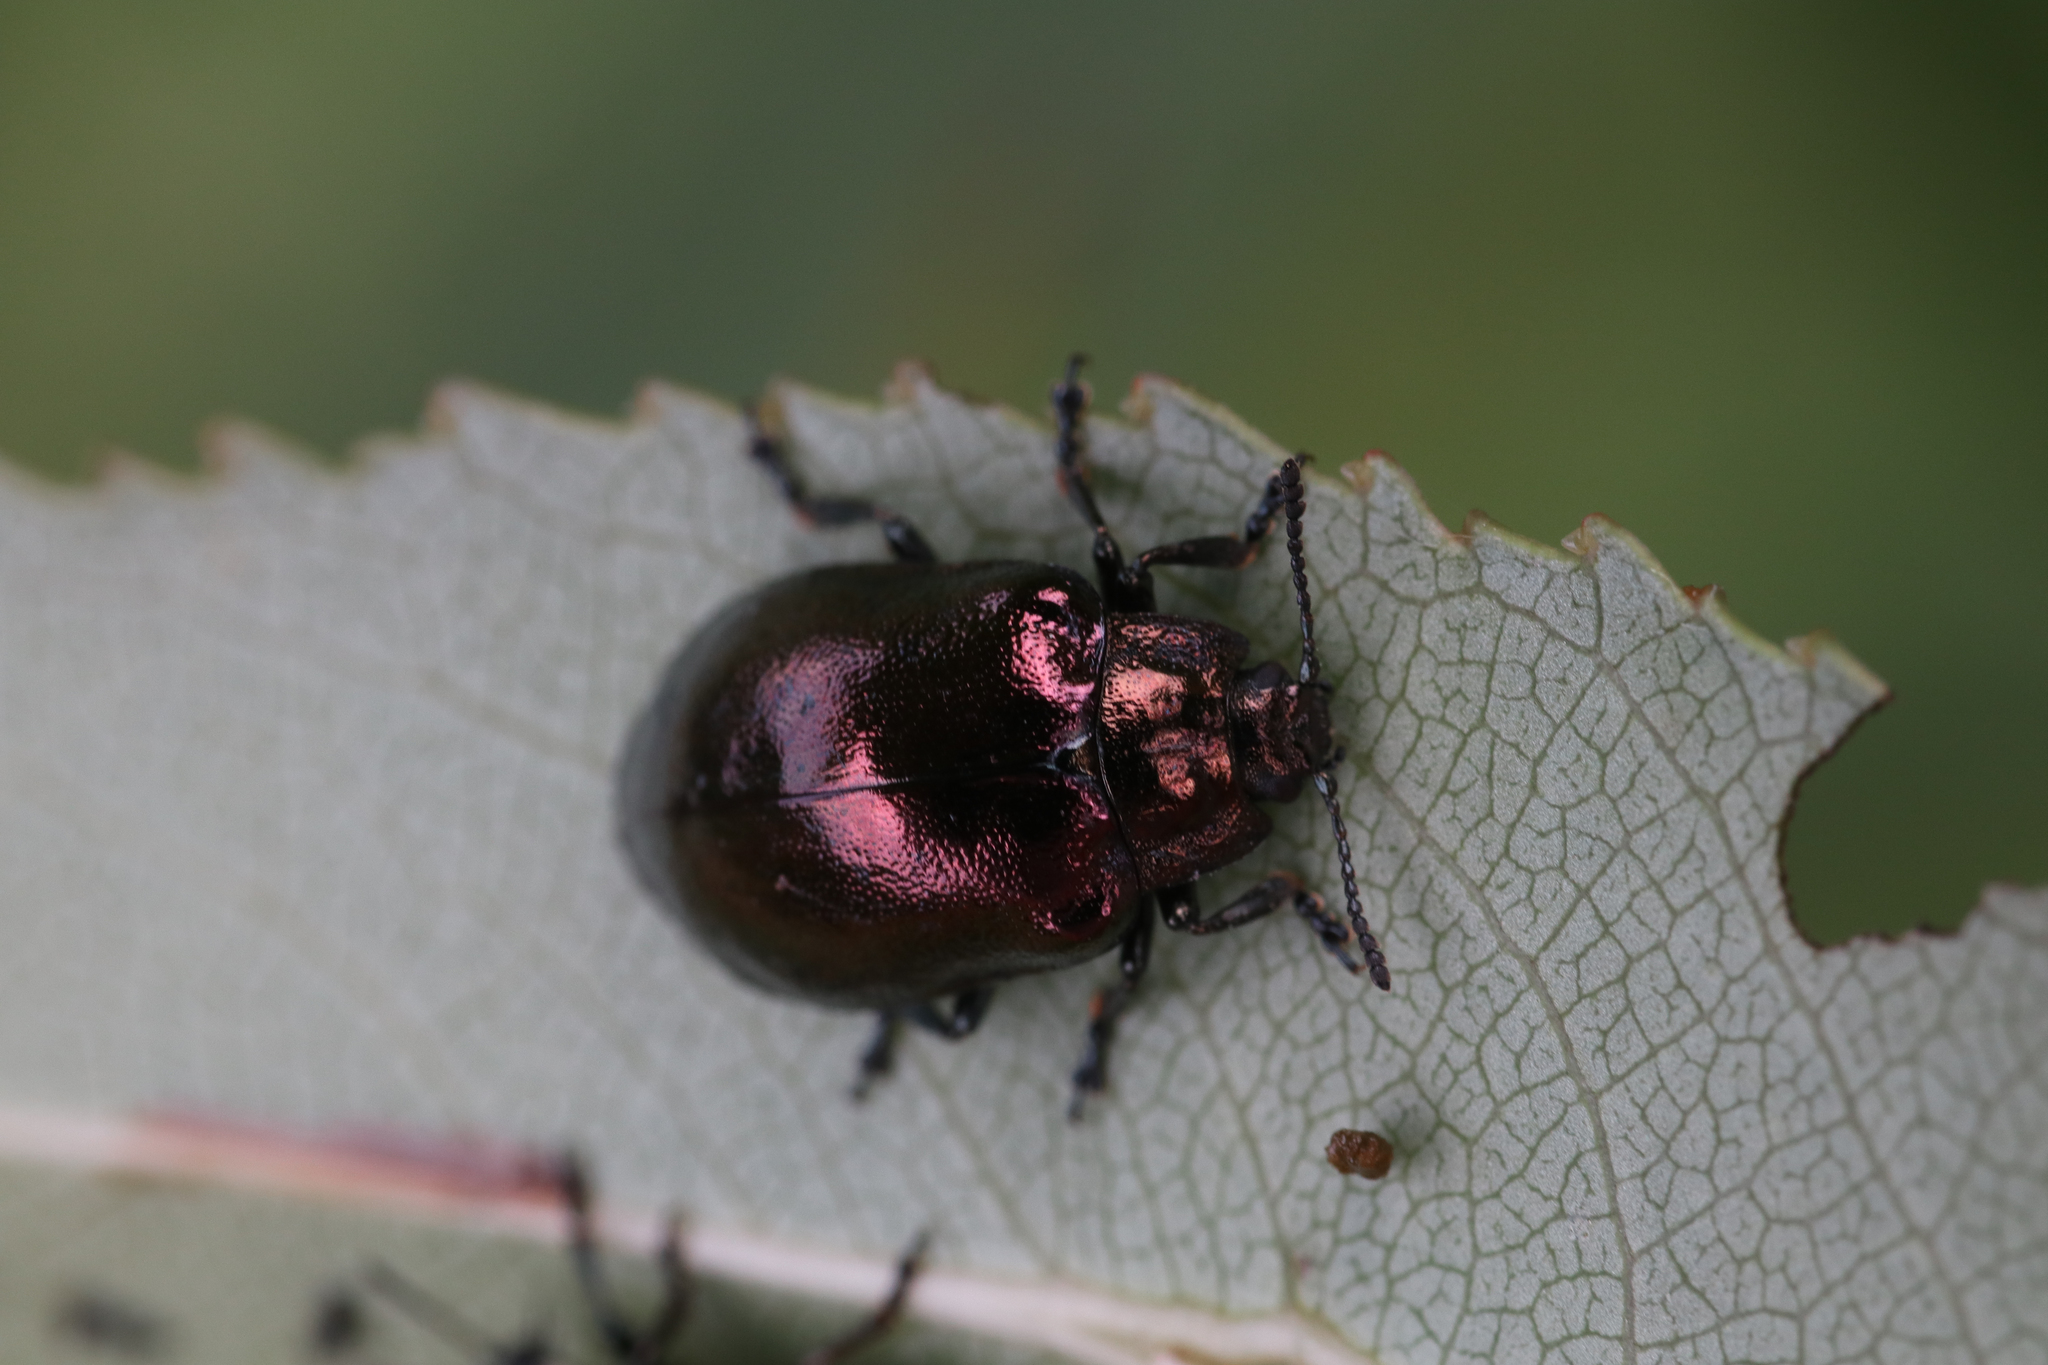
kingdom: Animalia
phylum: Arthropoda
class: Insecta
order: Coleoptera
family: Chrysomelidae
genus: Chrysomela
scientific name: Chrysomela cuprea
